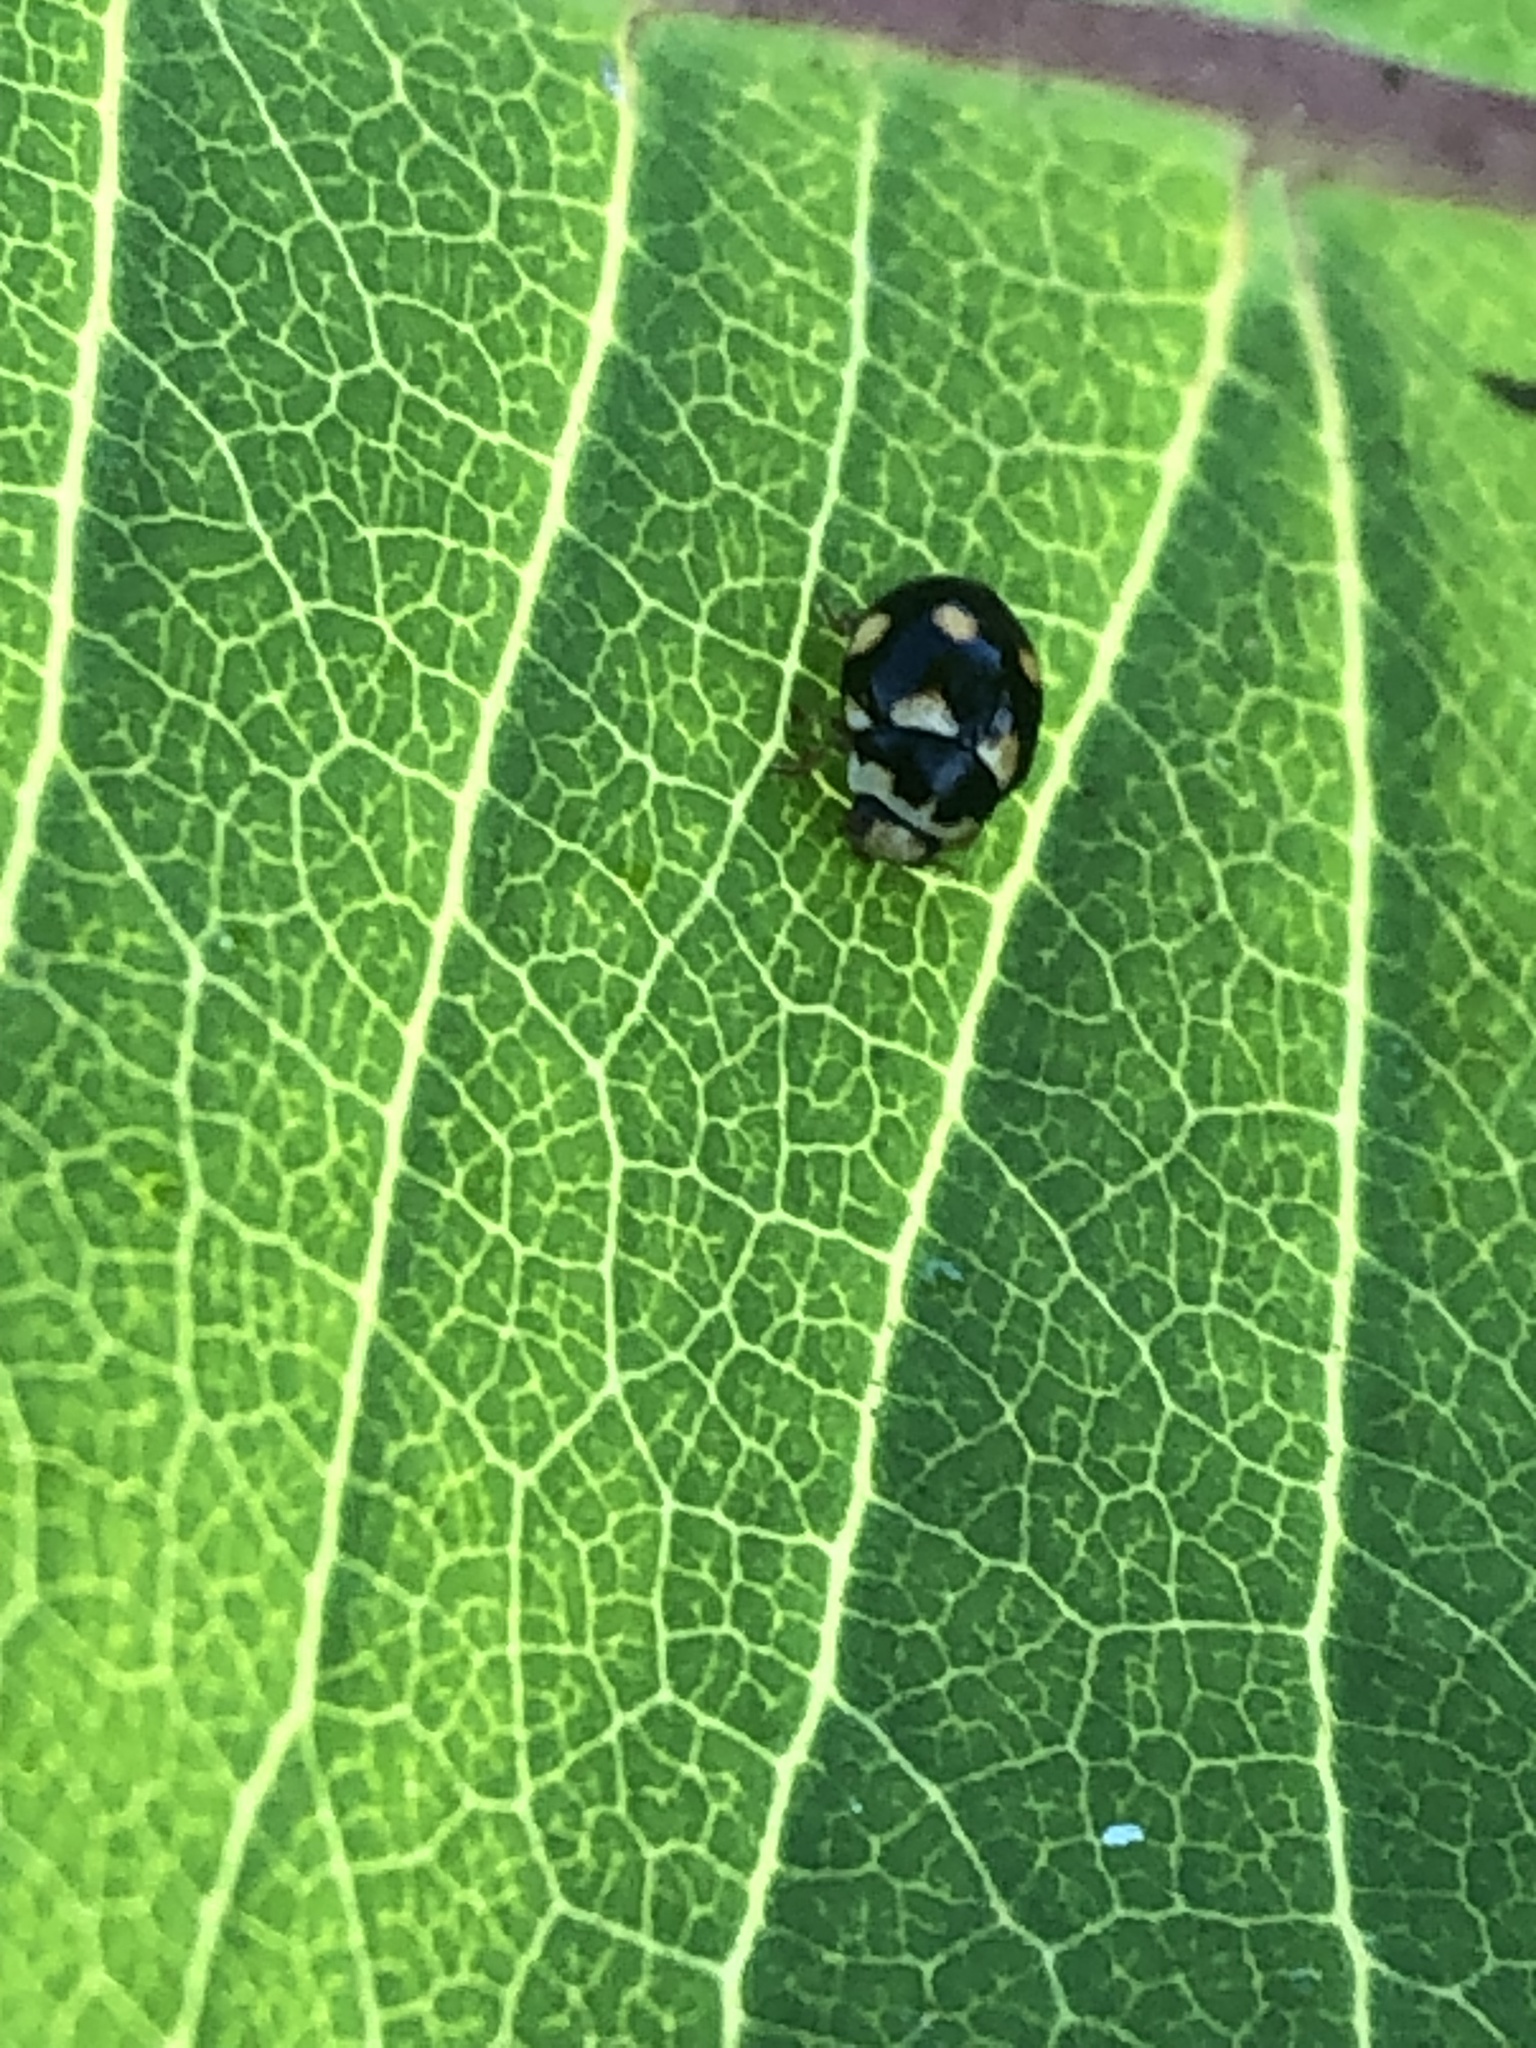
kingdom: Animalia
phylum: Arthropoda
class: Insecta
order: Coleoptera
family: Coccinellidae
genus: Brachiacantha
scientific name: Brachiacantha ursina
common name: Ursine spurleg lady beetle
